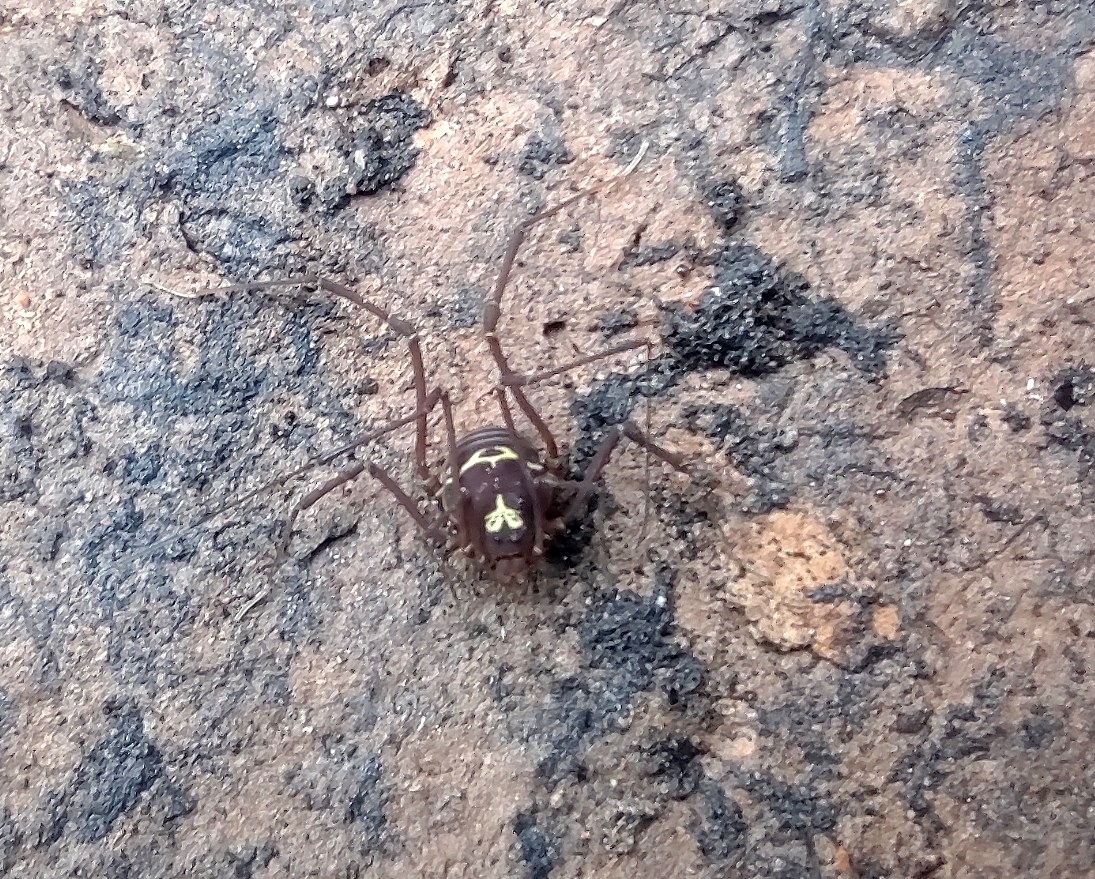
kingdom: Animalia
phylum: Arthropoda
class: Arachnida
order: Opiliones
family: Cosmetidae
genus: Cynorta
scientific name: Cynorta refracta
